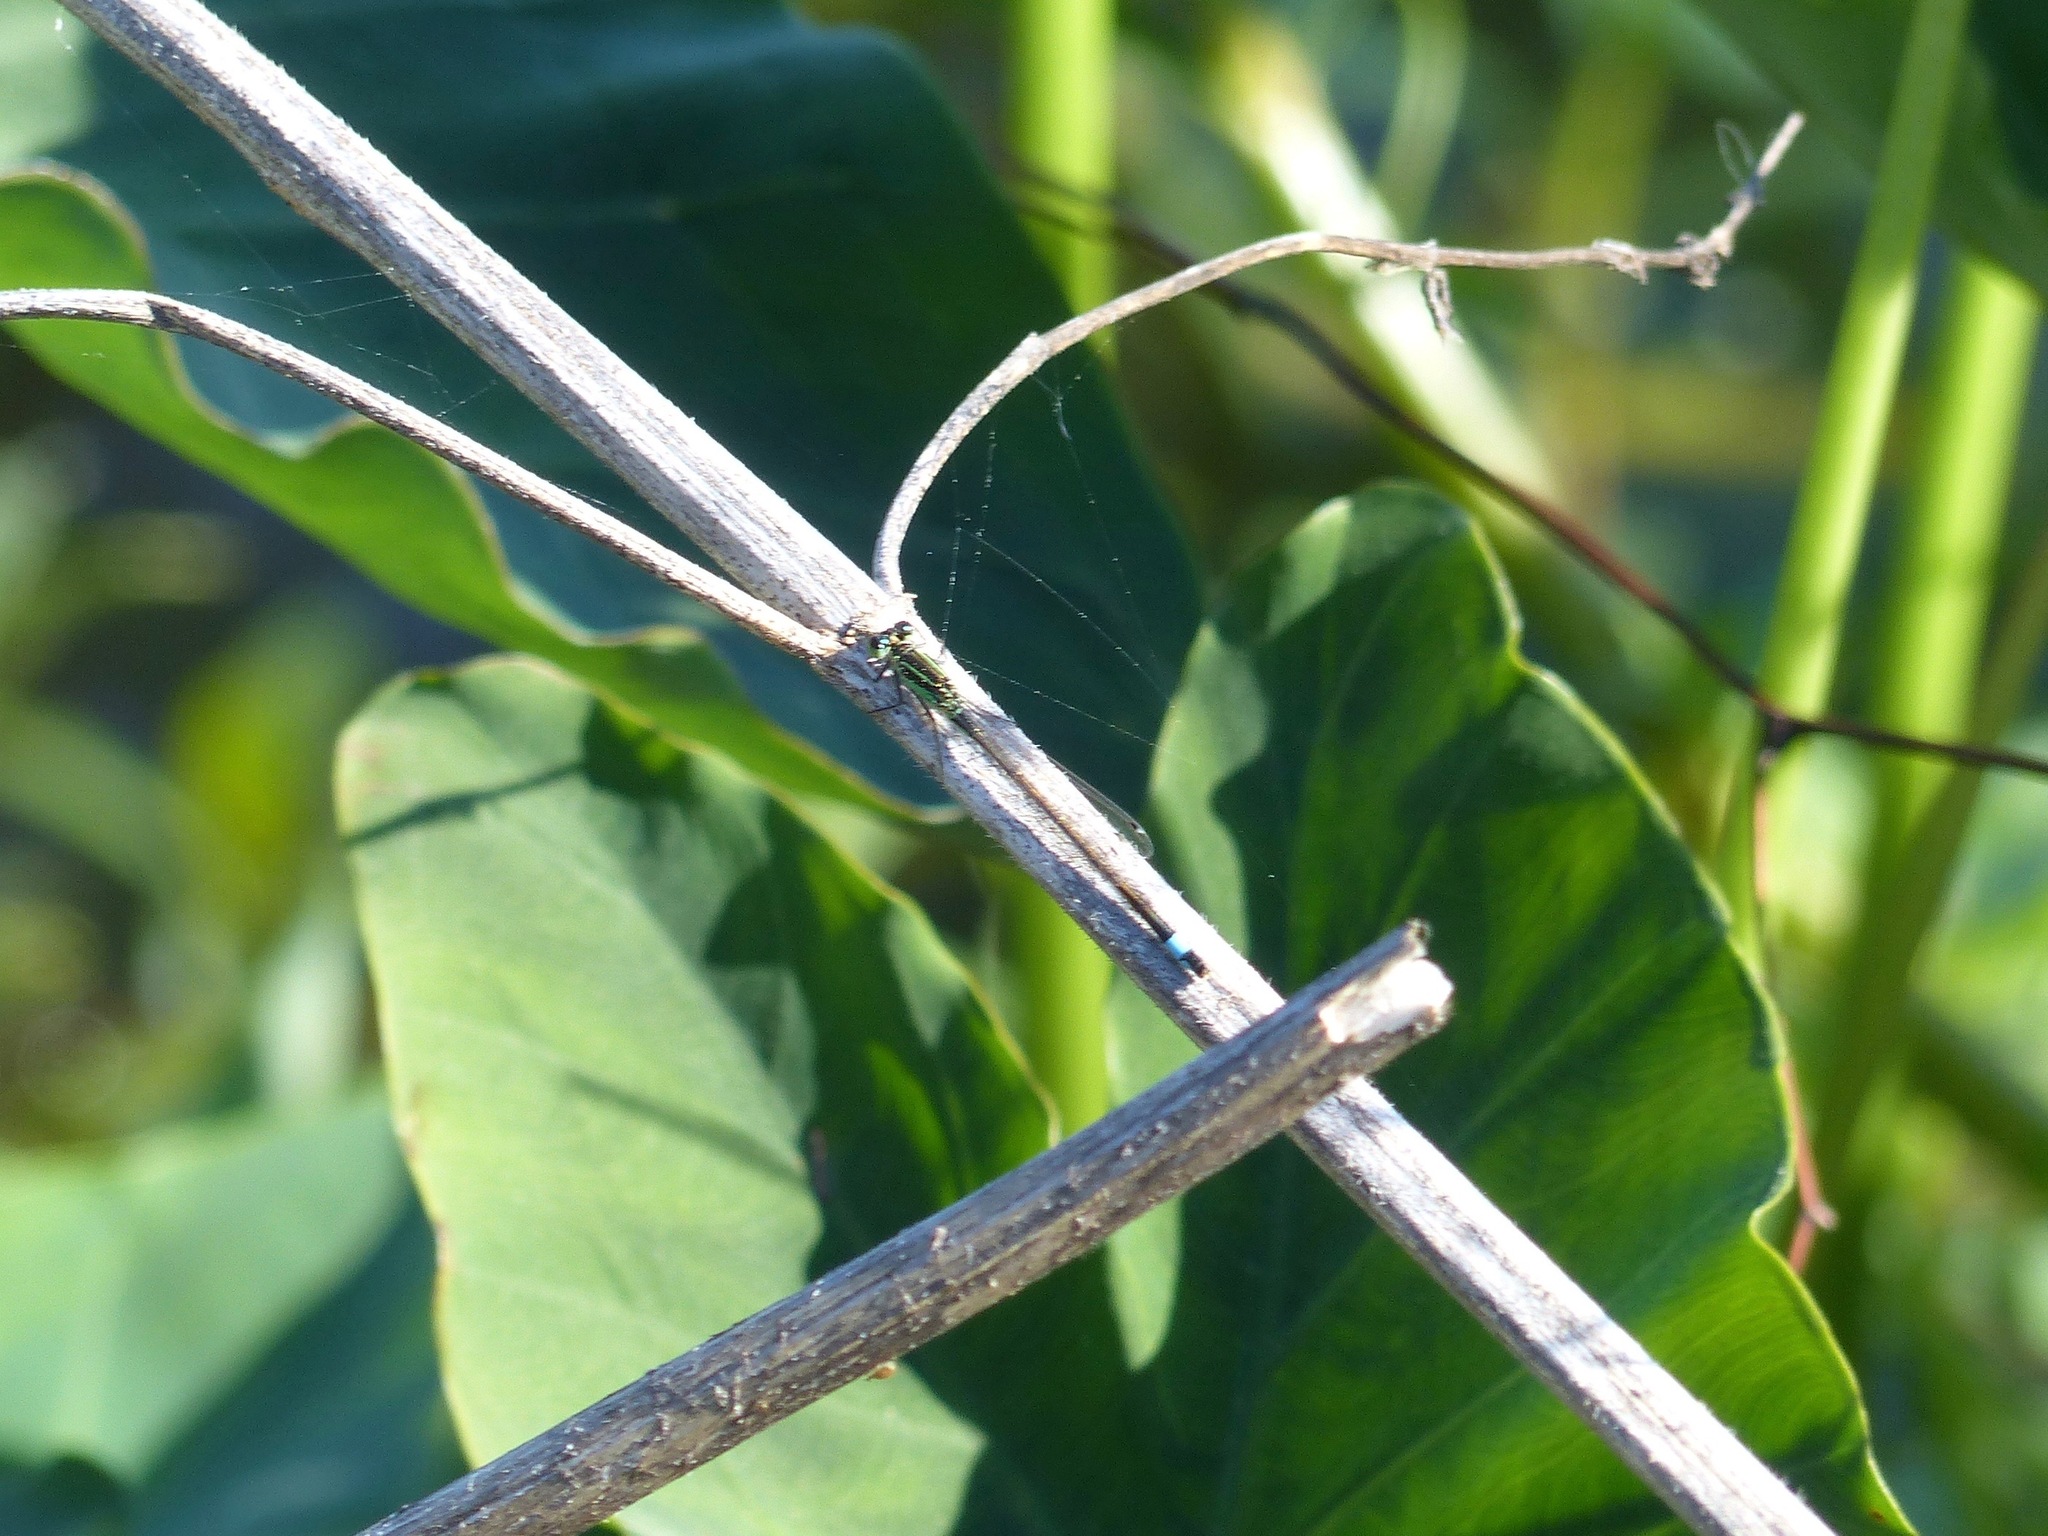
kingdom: Animalia
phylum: Arthropoda
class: Insecta
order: Odonata
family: Coenagrionidae
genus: Ischnura
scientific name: Ischnura ramburii
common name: Rambur's forktail
